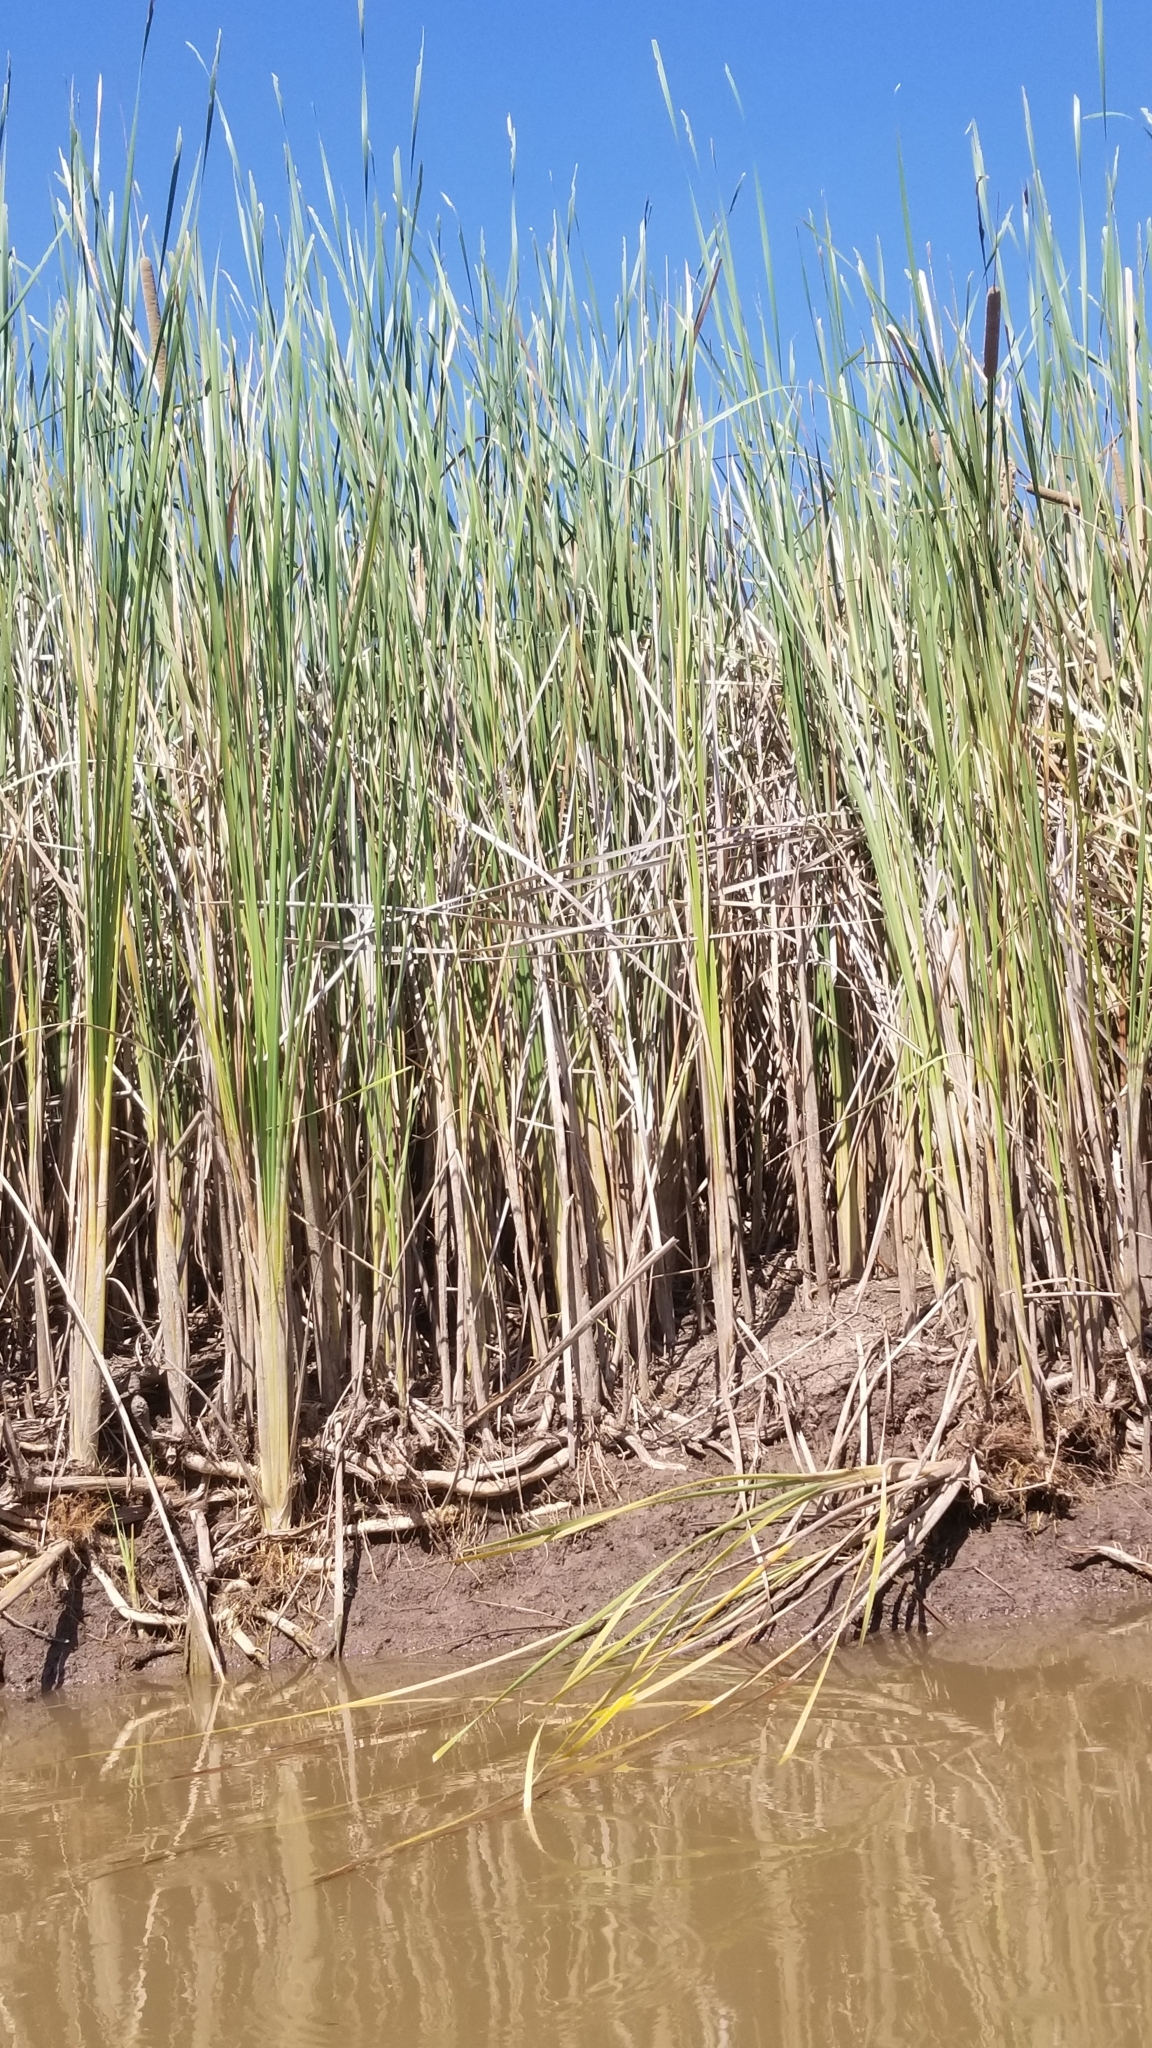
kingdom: Plantae
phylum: Tracheophyta
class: Liliopsida
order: Poales
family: Typhaceae
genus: Typha
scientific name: Typha domingensis
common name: Southern cattail
